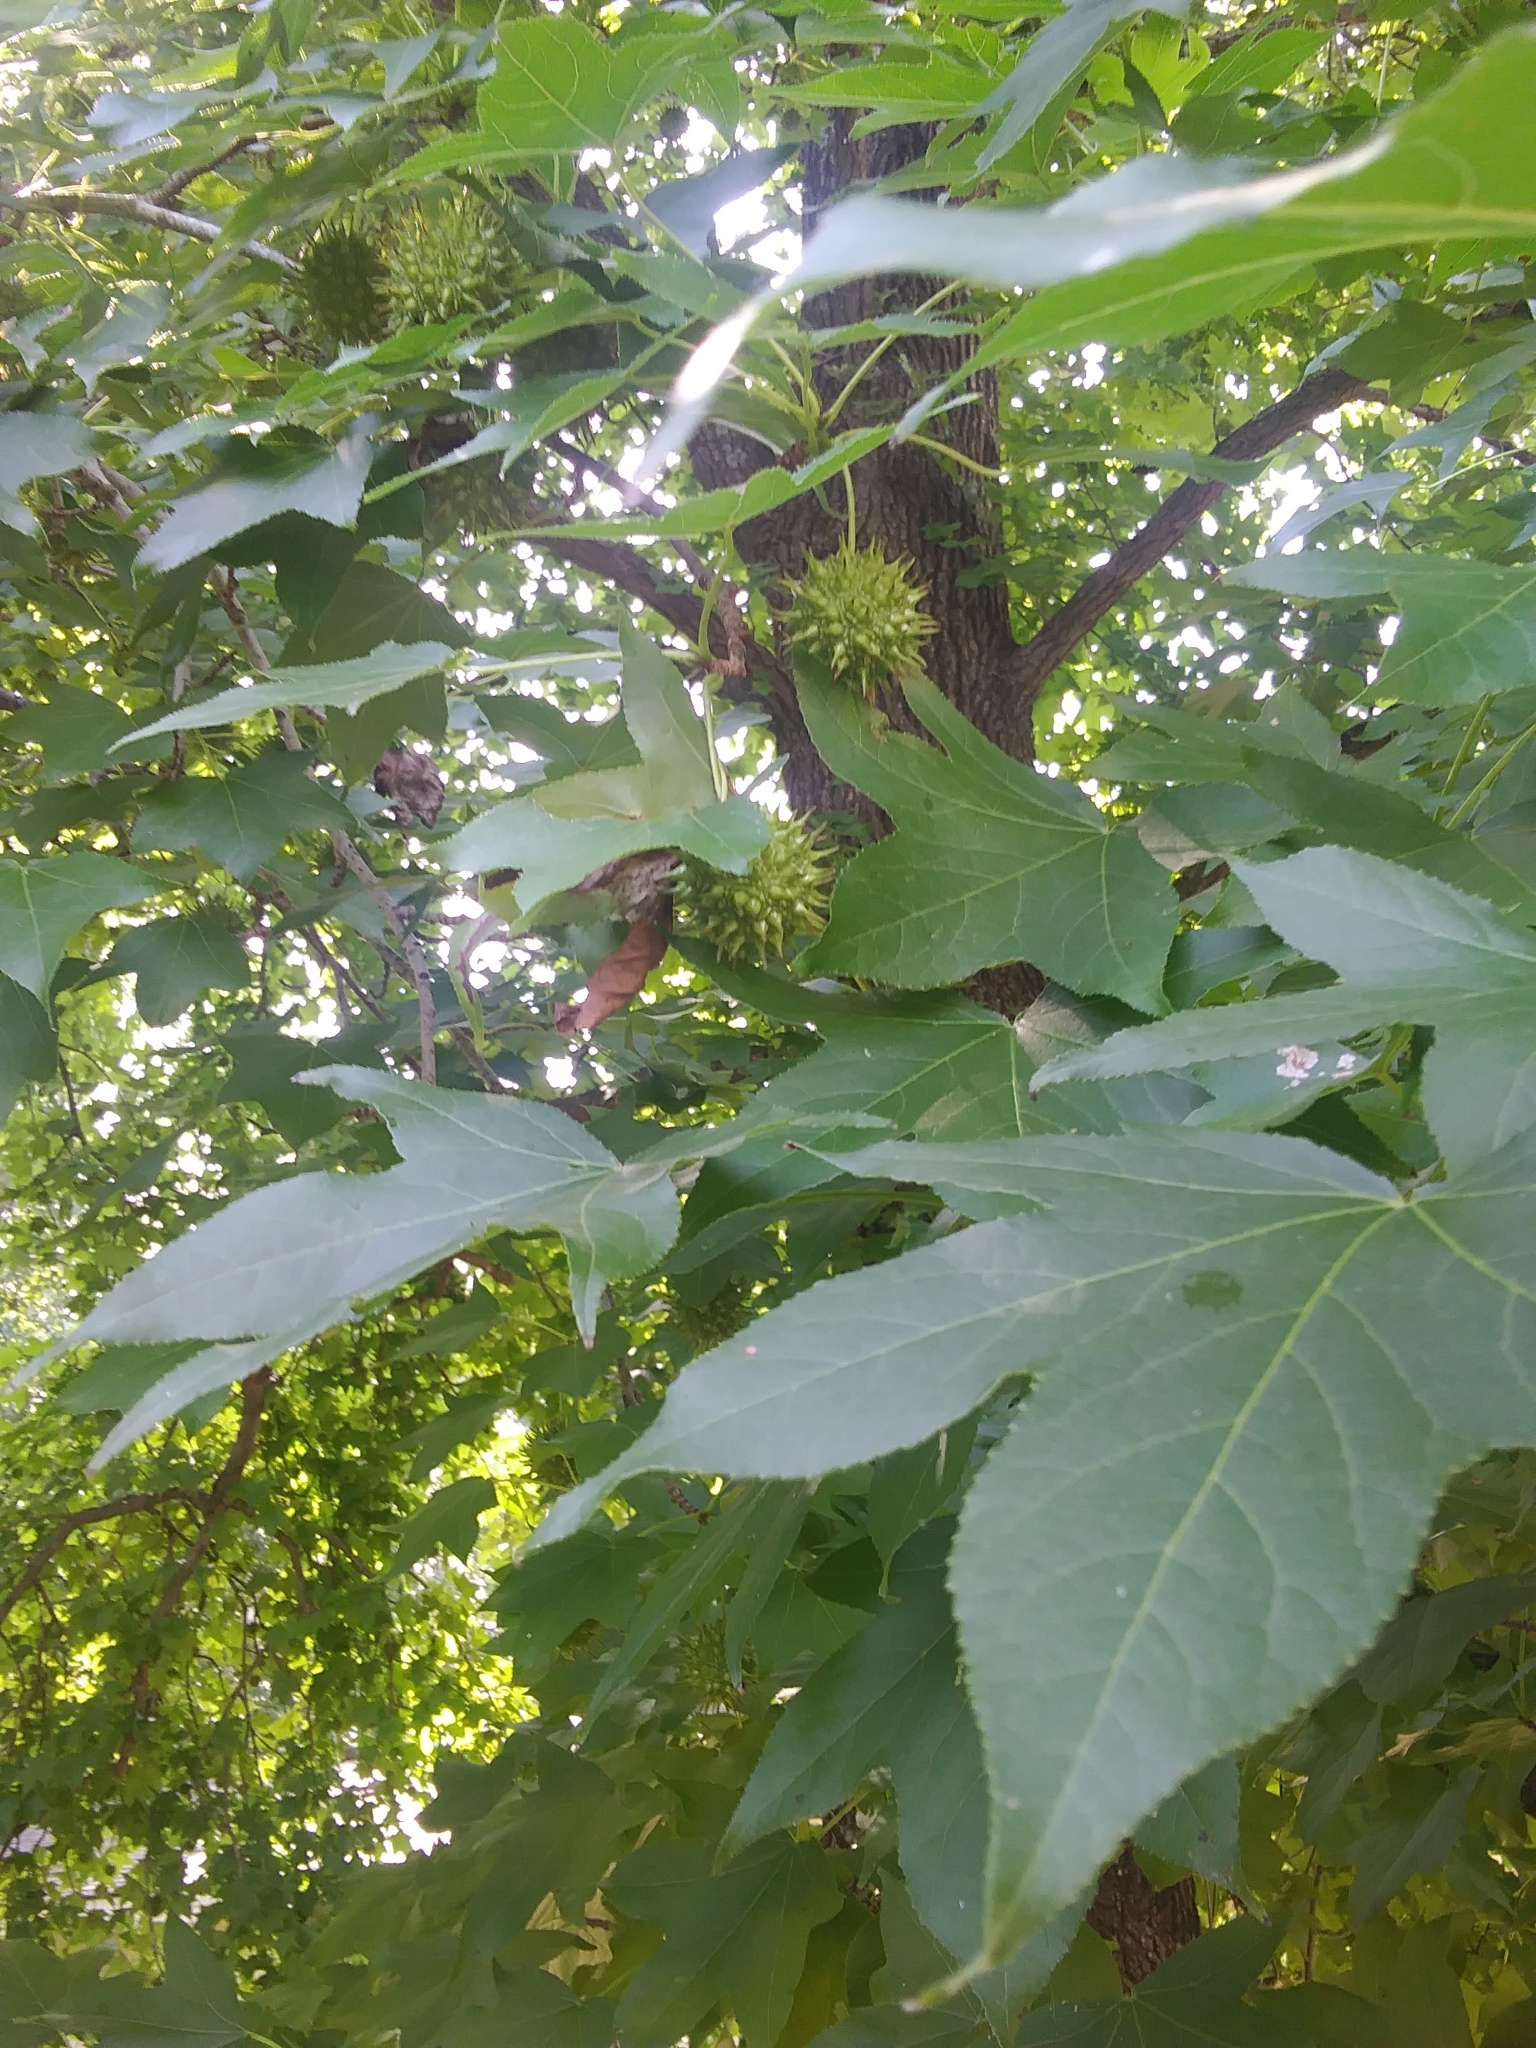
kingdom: Plantae
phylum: Tracheophyta
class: Magnoliopsida
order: Saxifragales
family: Altingiaceae
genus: Liquidambar
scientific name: Liquidambar styraciflua
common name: Sweet gum
